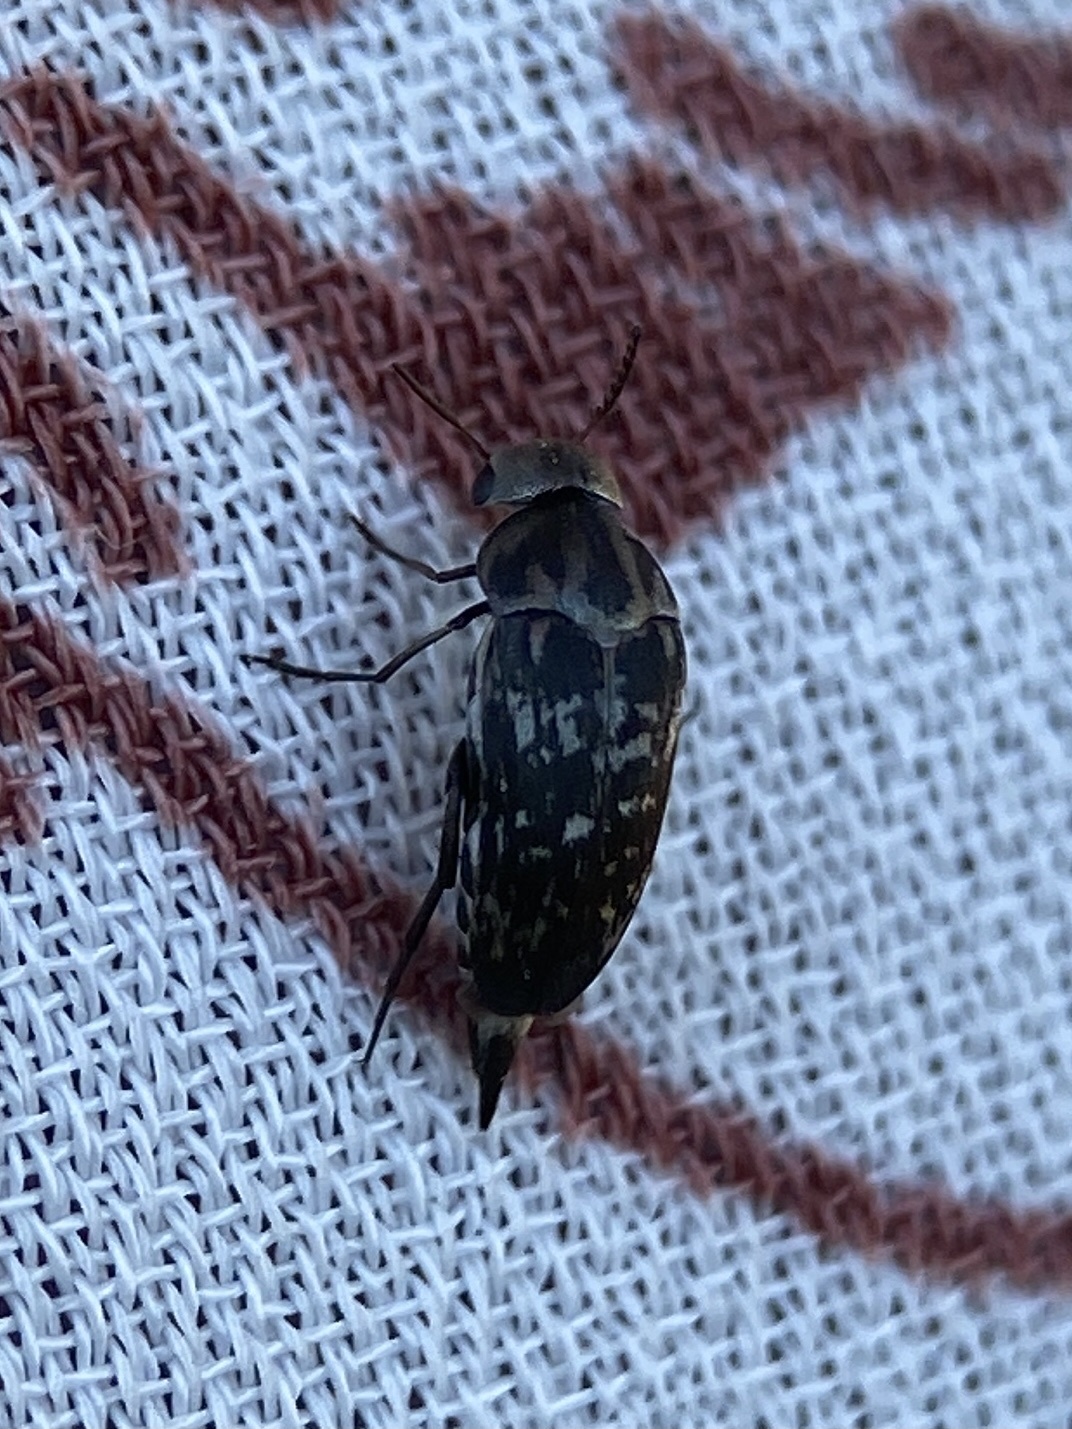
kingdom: Animalia
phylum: Arthropoda
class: Insecta
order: Coleoptera
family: Mordellidae
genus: Mordella
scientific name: Mordella marginata
